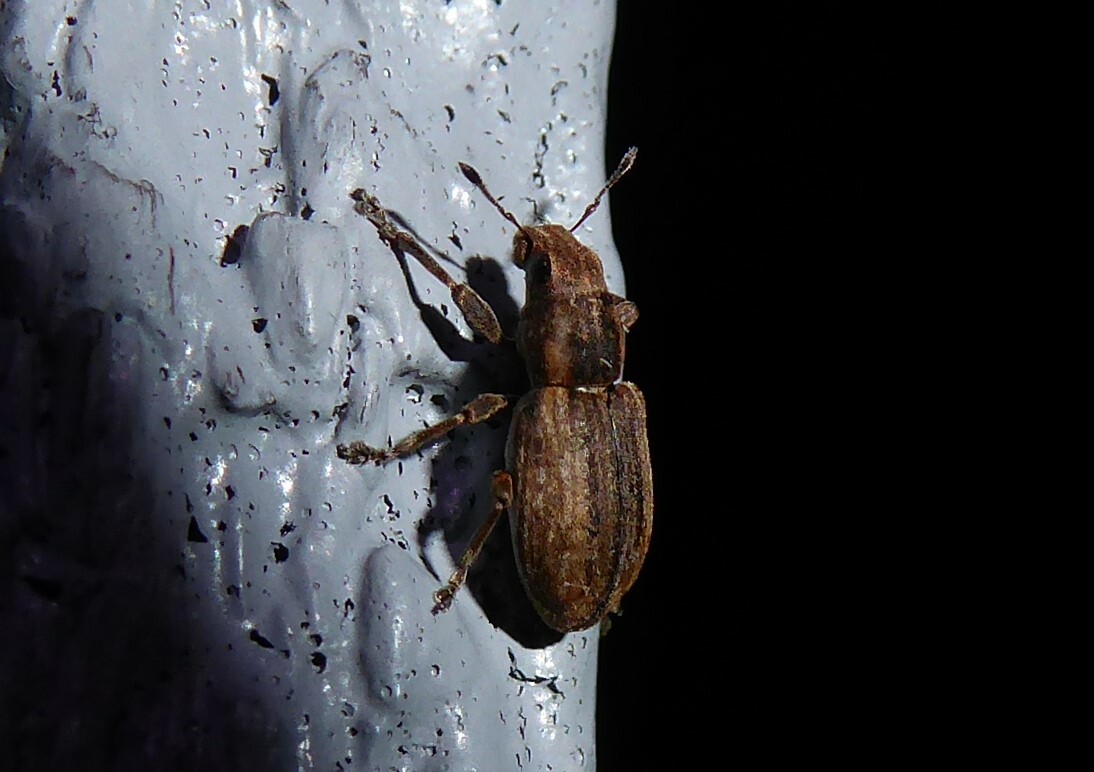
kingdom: Animalia
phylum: Arthropoda
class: Insecta
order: Coleoptera
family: Curculionidae
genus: Sitona
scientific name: Sitona obsoletus
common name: Weevil
